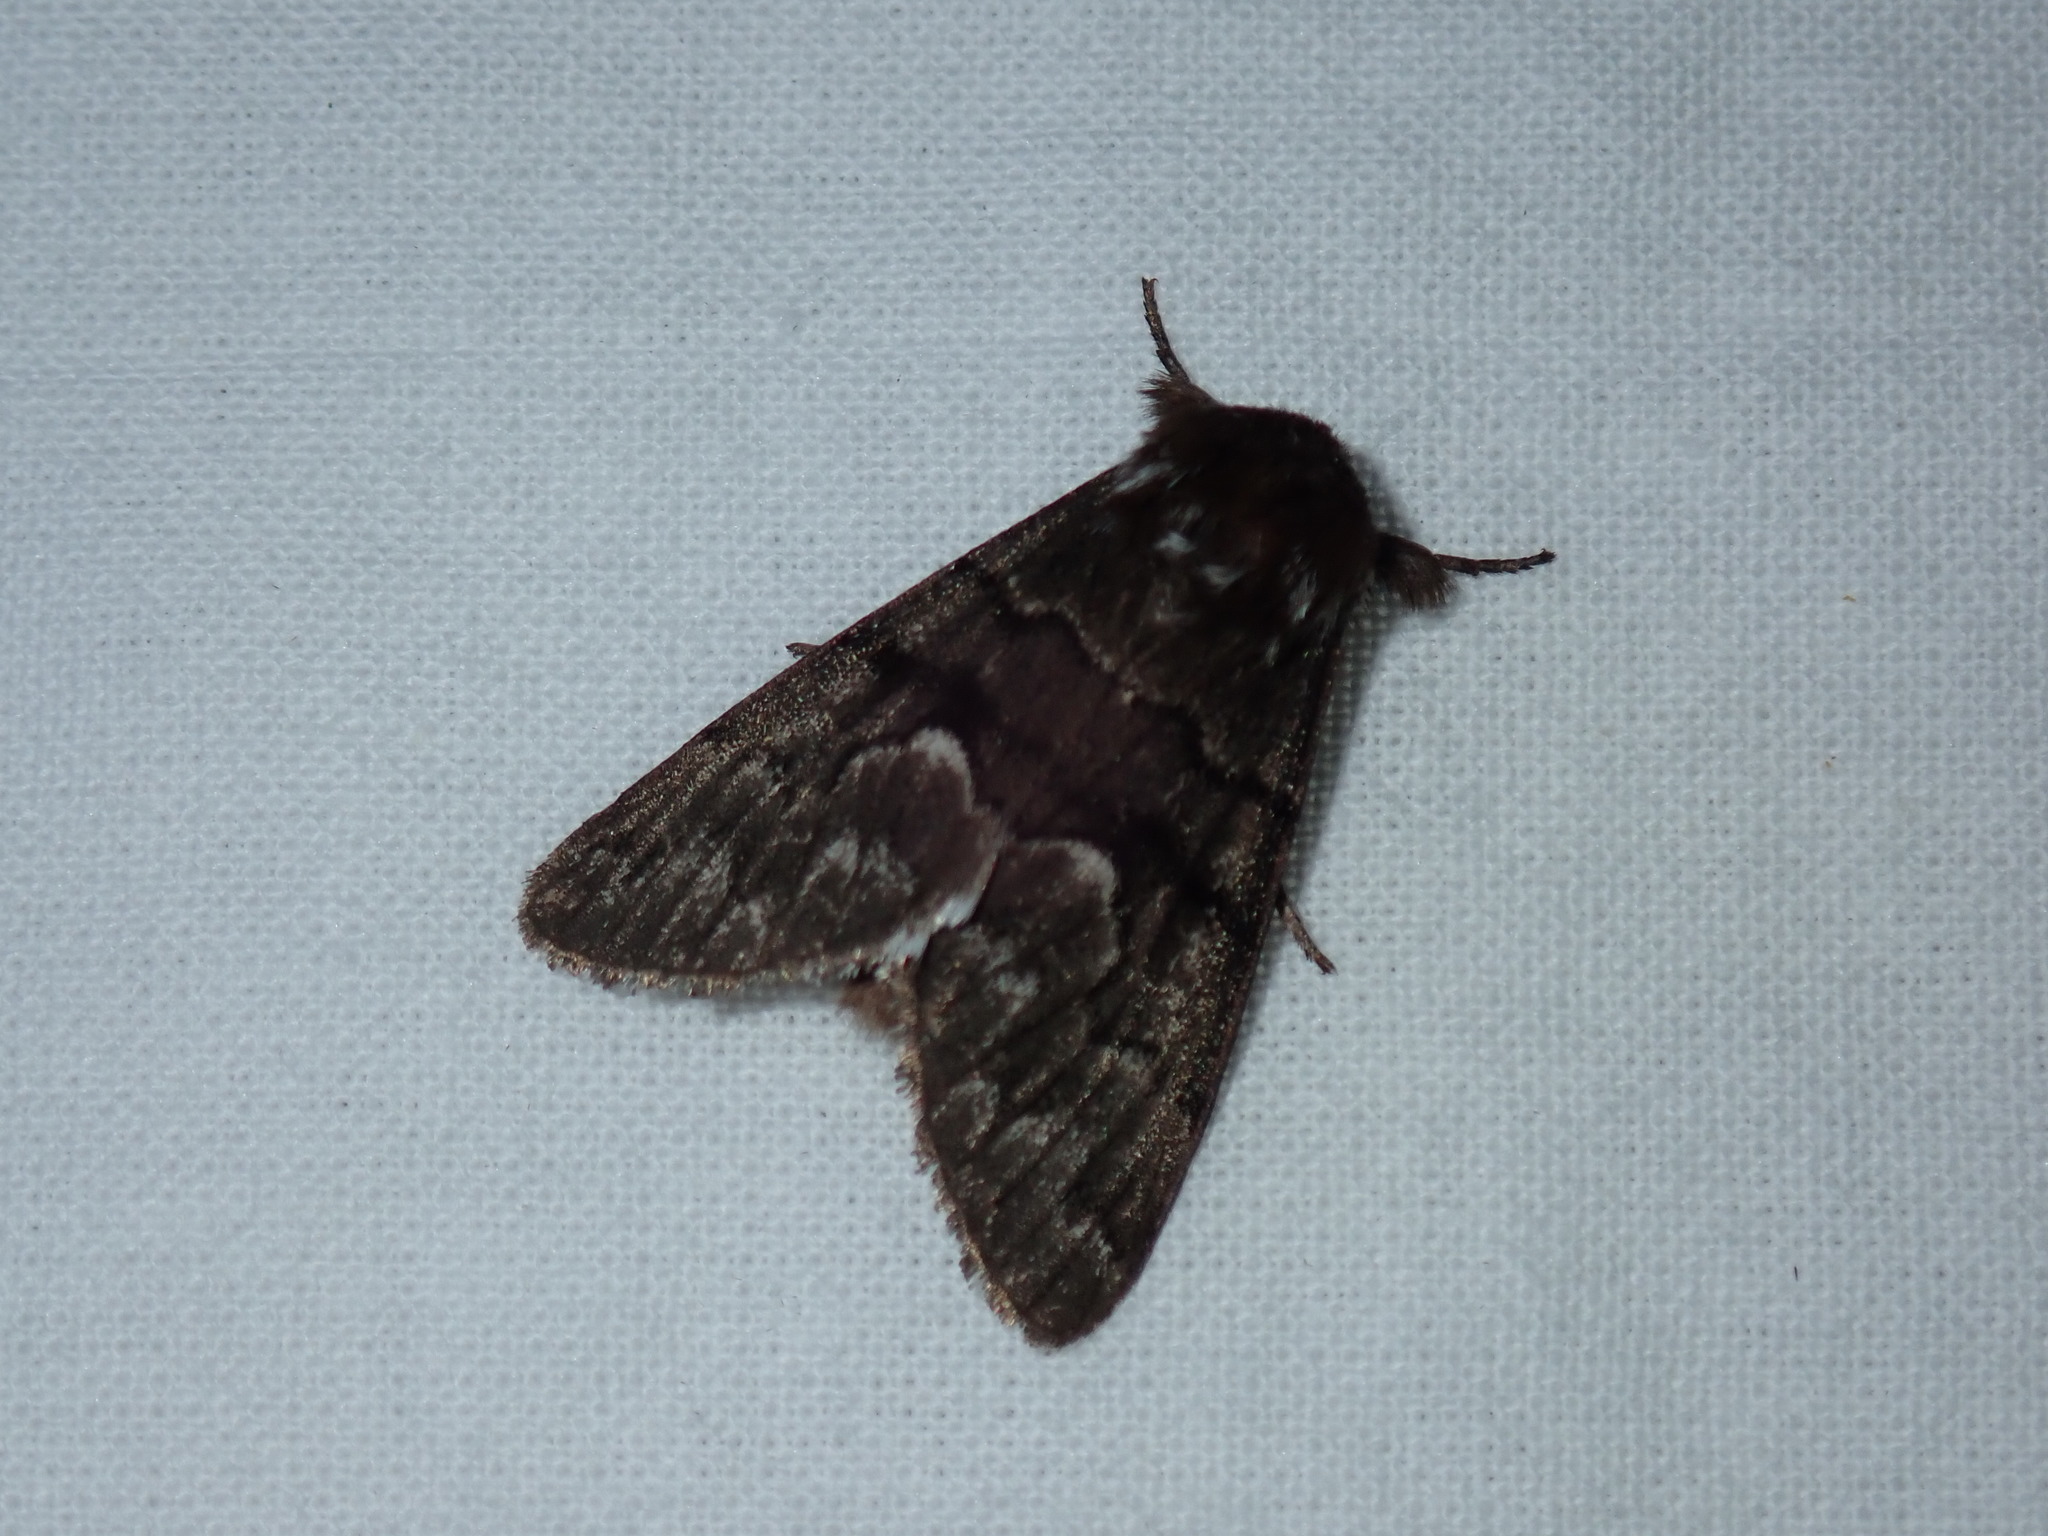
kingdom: Animalia
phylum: Arthropoda
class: Insecta
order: Lepidoptera
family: Noctuidae
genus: Panthea
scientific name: Panthea furcilla
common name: Eastern panthea moth
